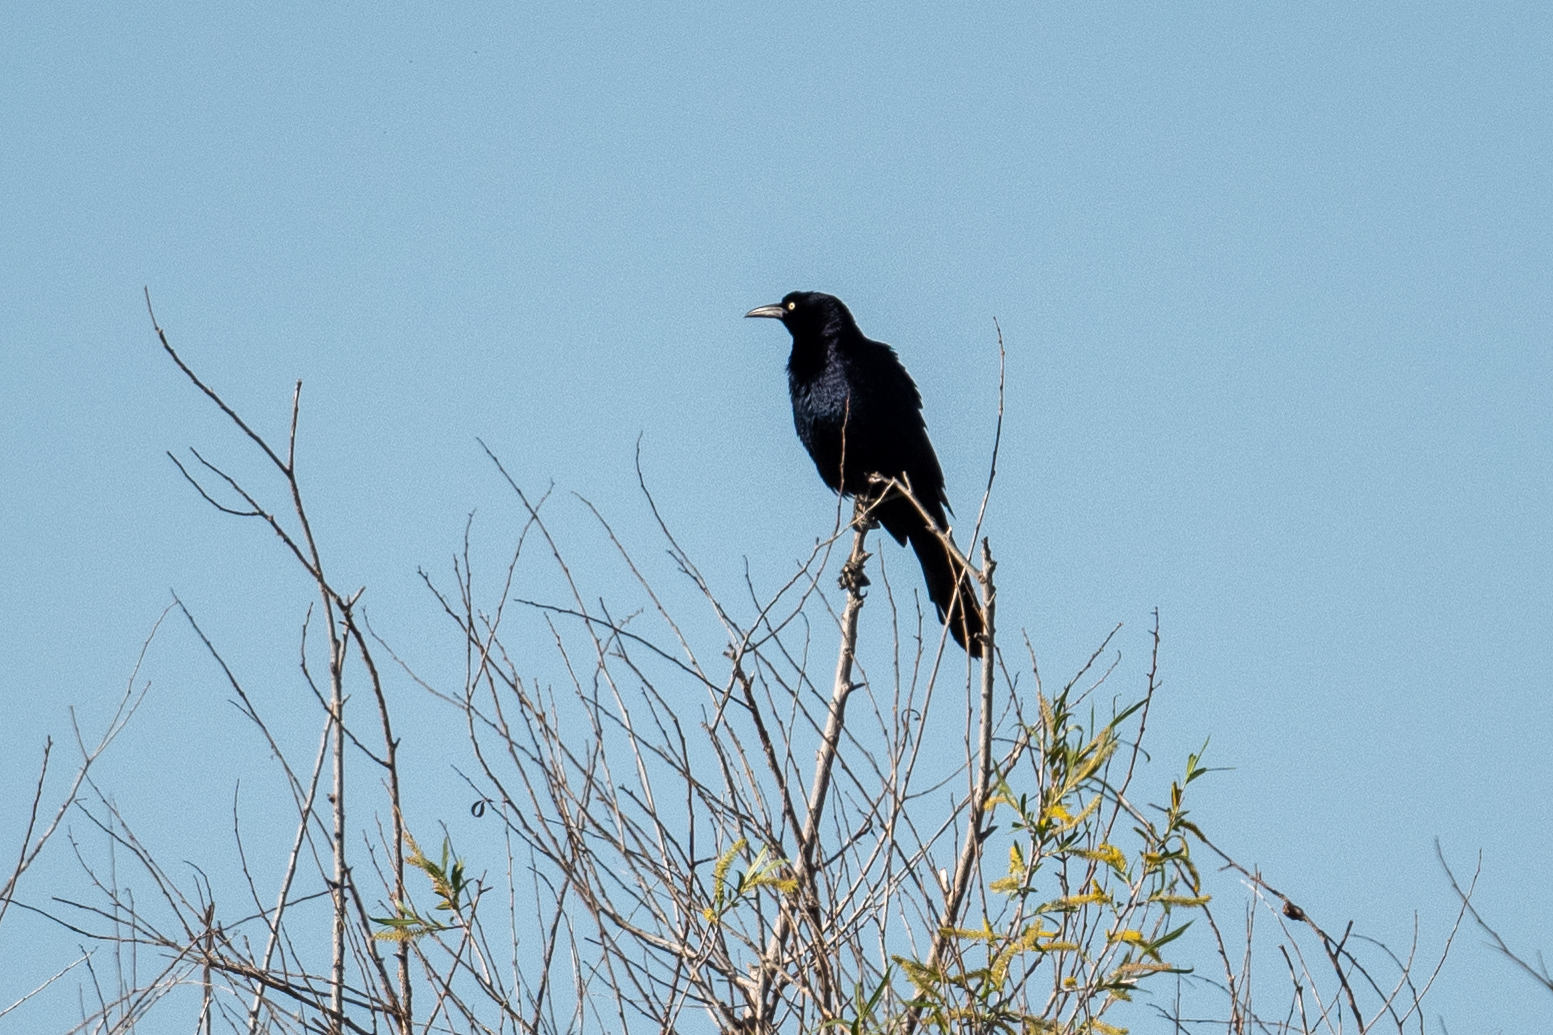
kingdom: Animalia
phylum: Chordata
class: Aves
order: Passeriformes
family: Icteridae
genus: Quiscalus
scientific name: Quiscalus mexicanus
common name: Great-tailed grackle
